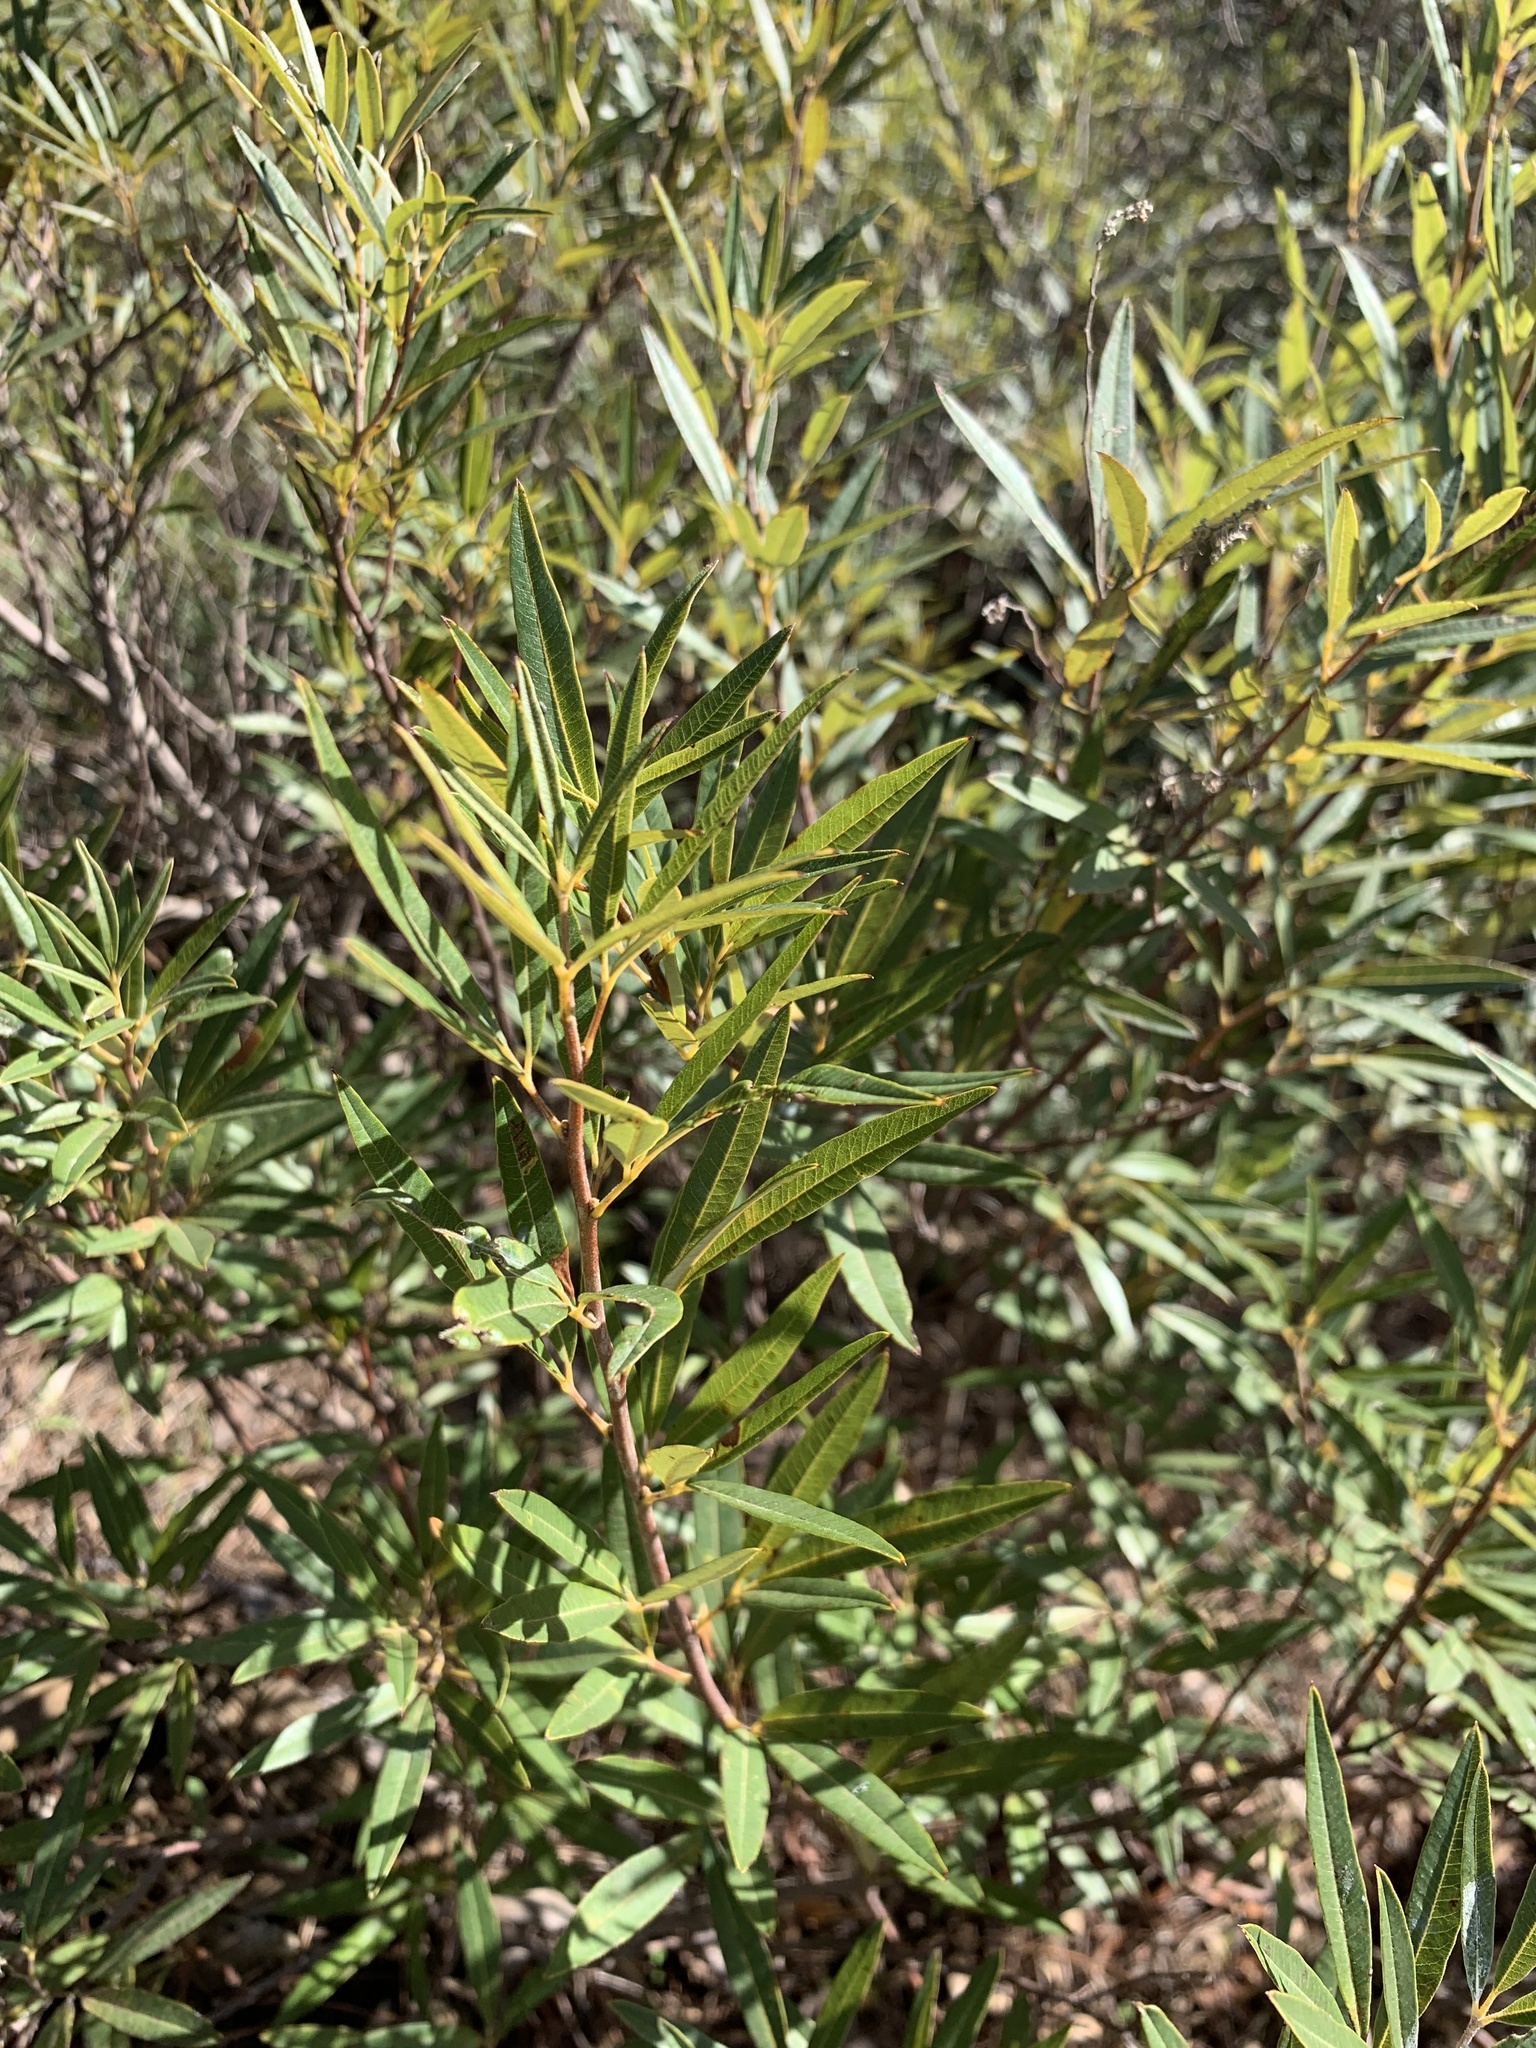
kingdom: Plantae
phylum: Tracheophyta
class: Magnoliopsida
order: Sapindales
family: Anacardiaceae
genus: Searsia
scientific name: Searsia angustifolia
